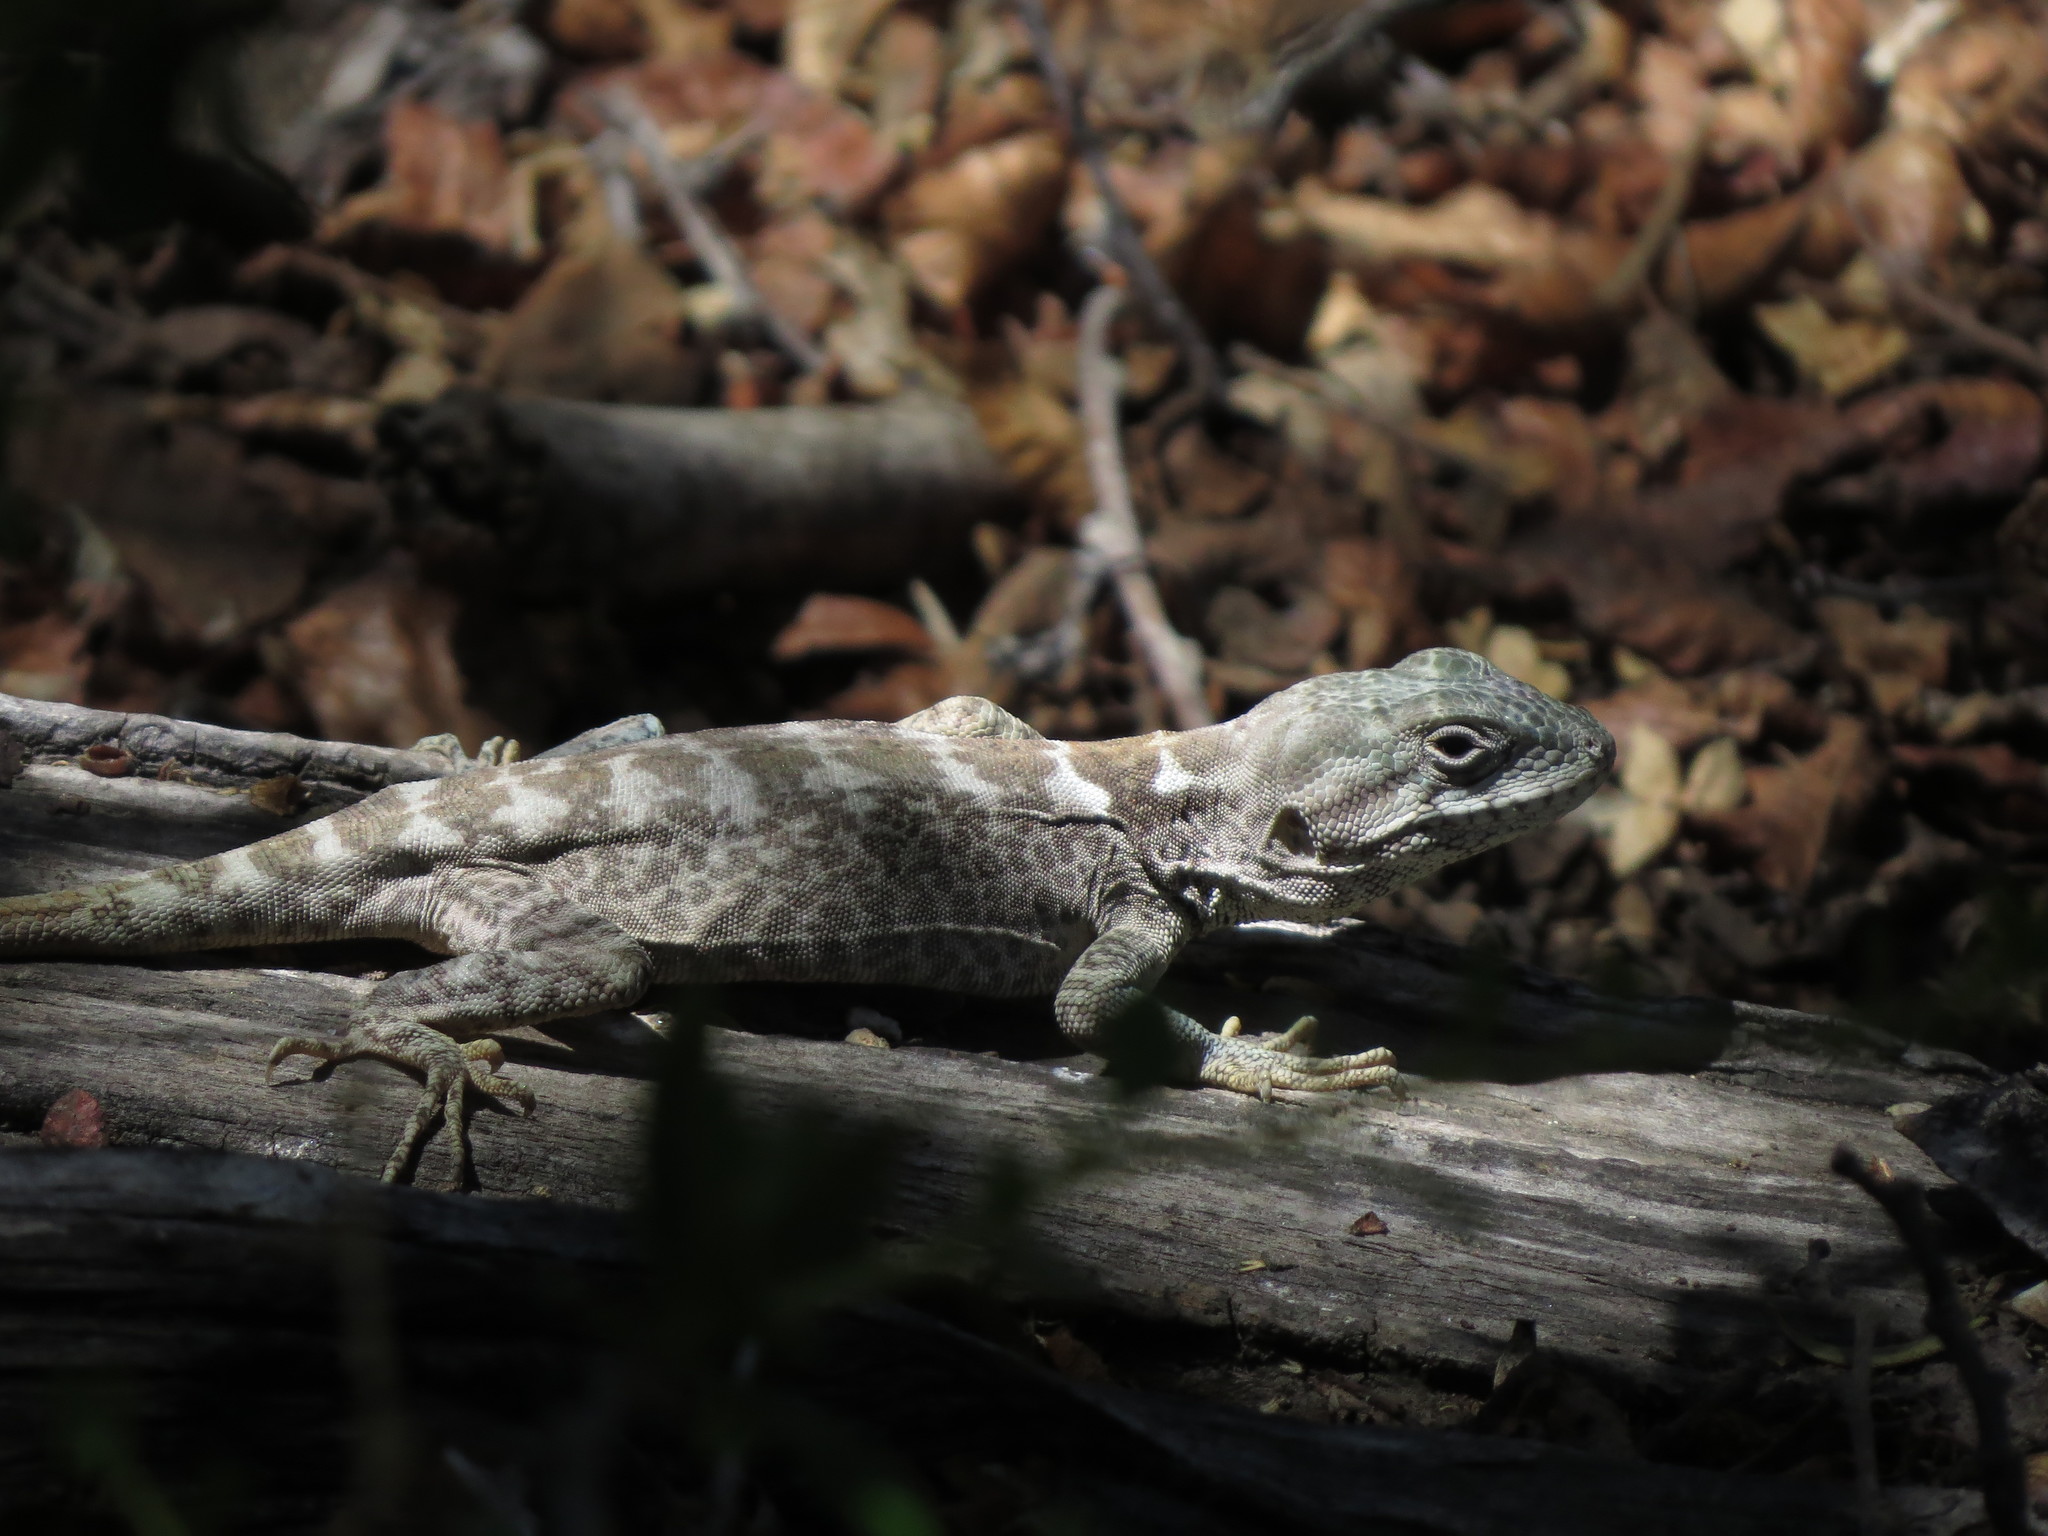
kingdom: Animalia
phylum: Chordata
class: Squamata
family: Leiosauridae
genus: Pristidactylus
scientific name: Pristidactylus valeriae
